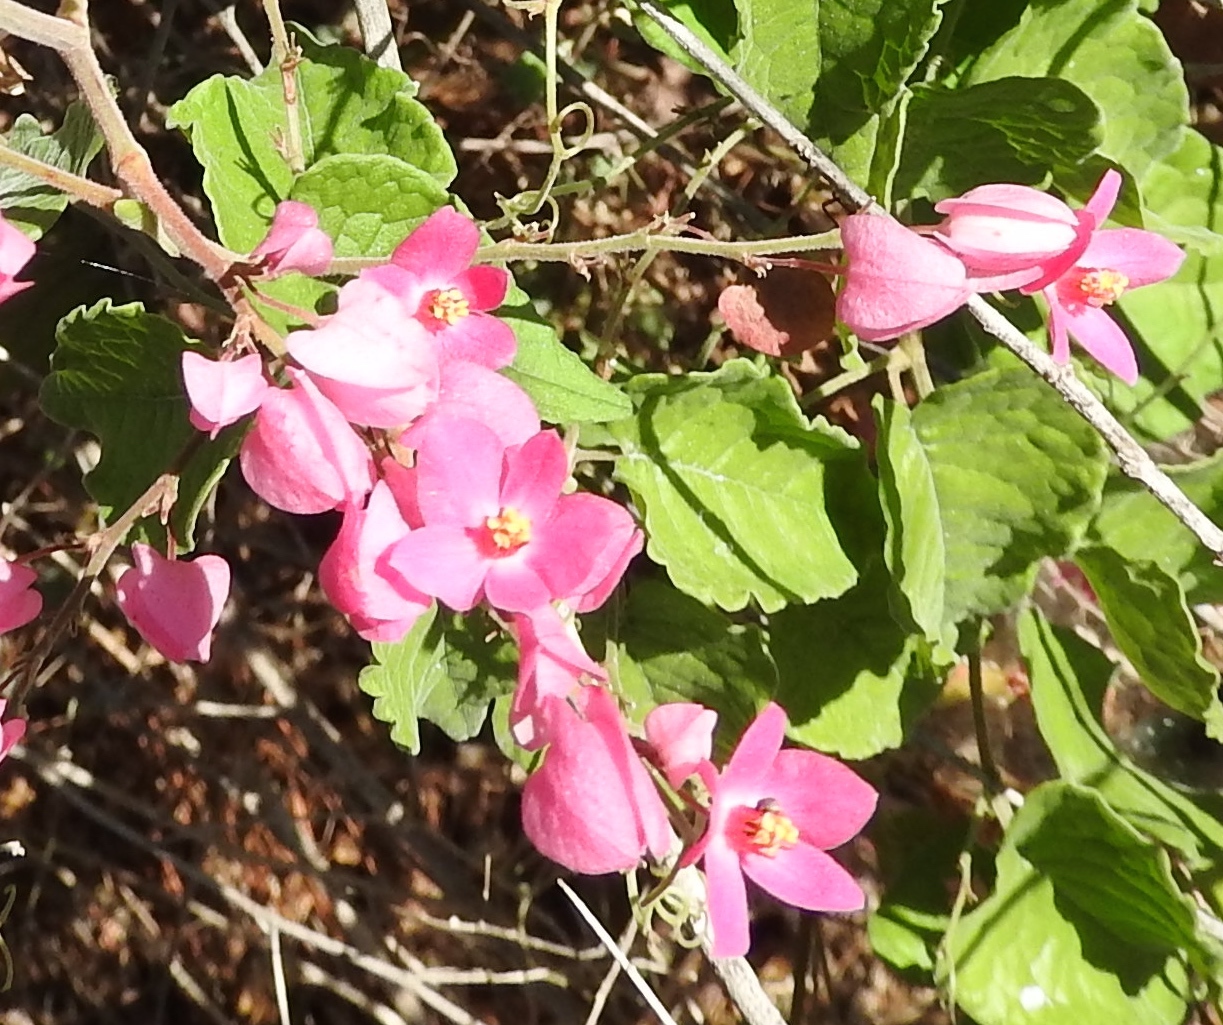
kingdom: Plantae
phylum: Tracheophyta
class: Magnoliopsida
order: Caryophyllales
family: Polygonaceae
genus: Antigonon
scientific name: Antigonon leptopus
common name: Coral vine
